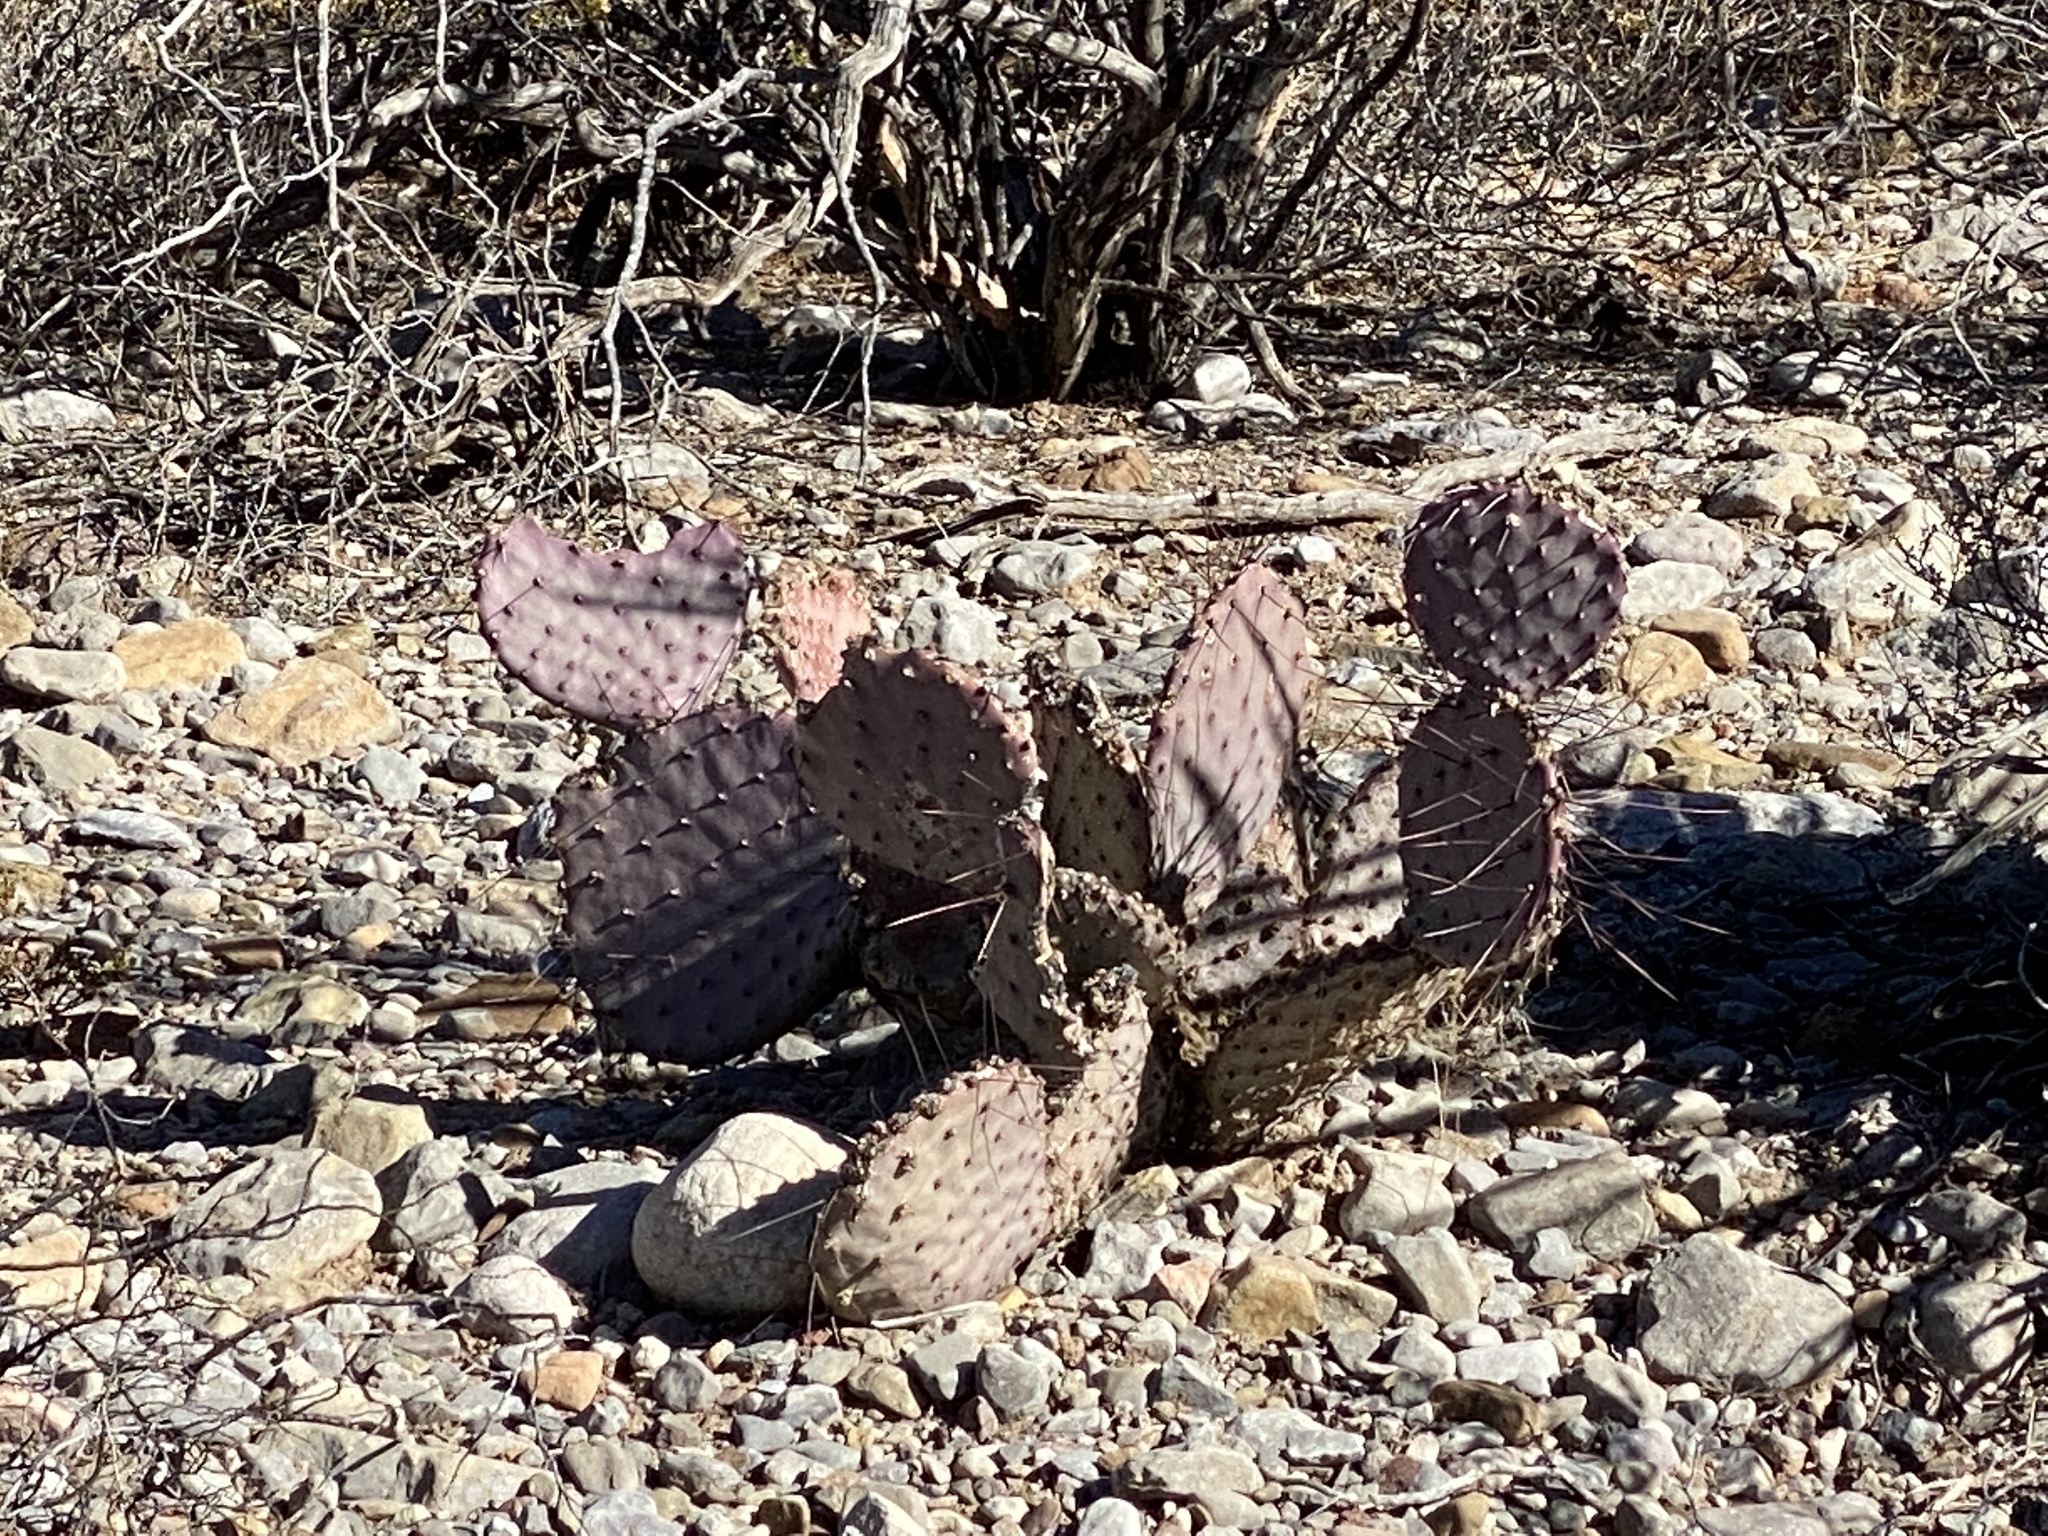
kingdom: Plantae
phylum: Tracheophyta
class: Magnoliopsida
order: Caryophyllales
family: Cactaceae
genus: Opuntia
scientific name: Opuntia macrocentra
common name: Purple prickly-pear
